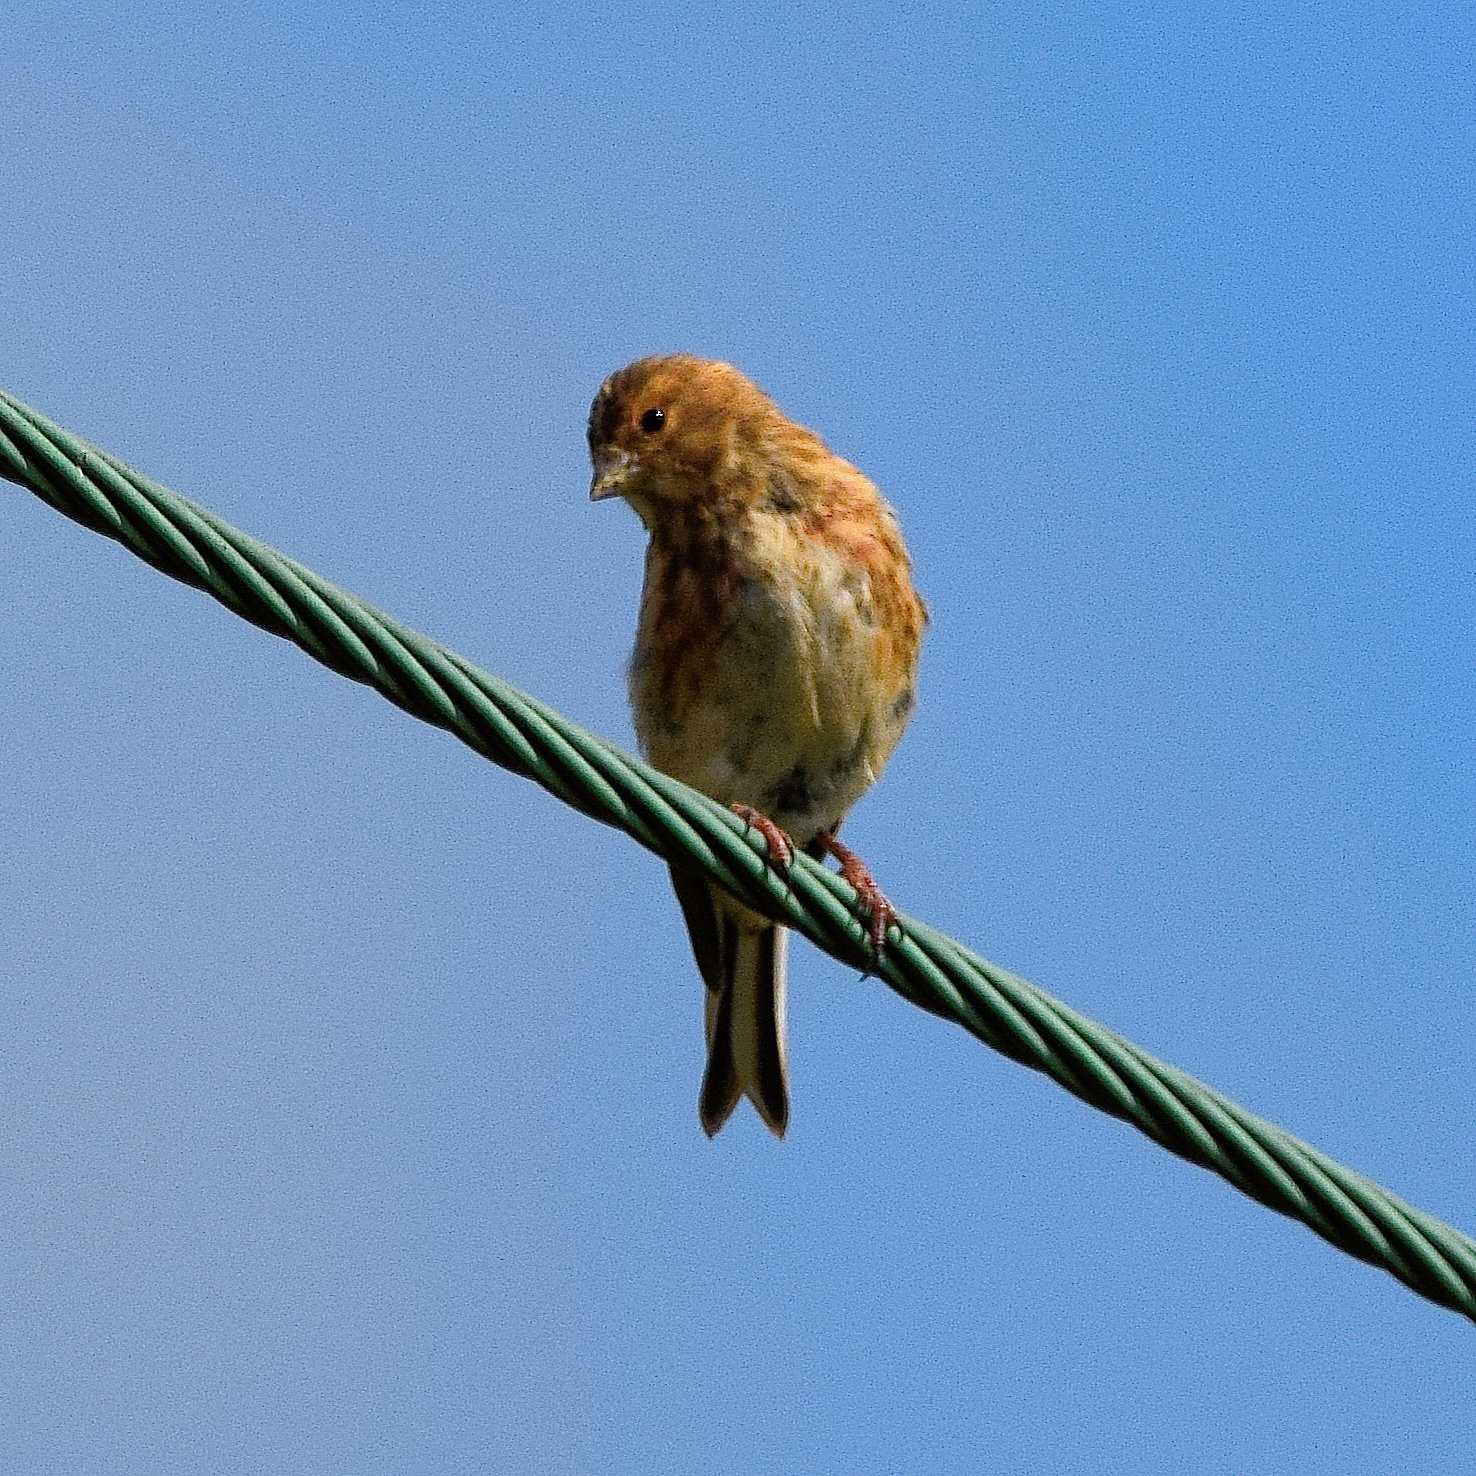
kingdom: Animalia
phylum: Chordata
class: Aves
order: Passeriformes
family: Fringillidae
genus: Linaria
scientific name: Linaria cannabina
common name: Common linnet
